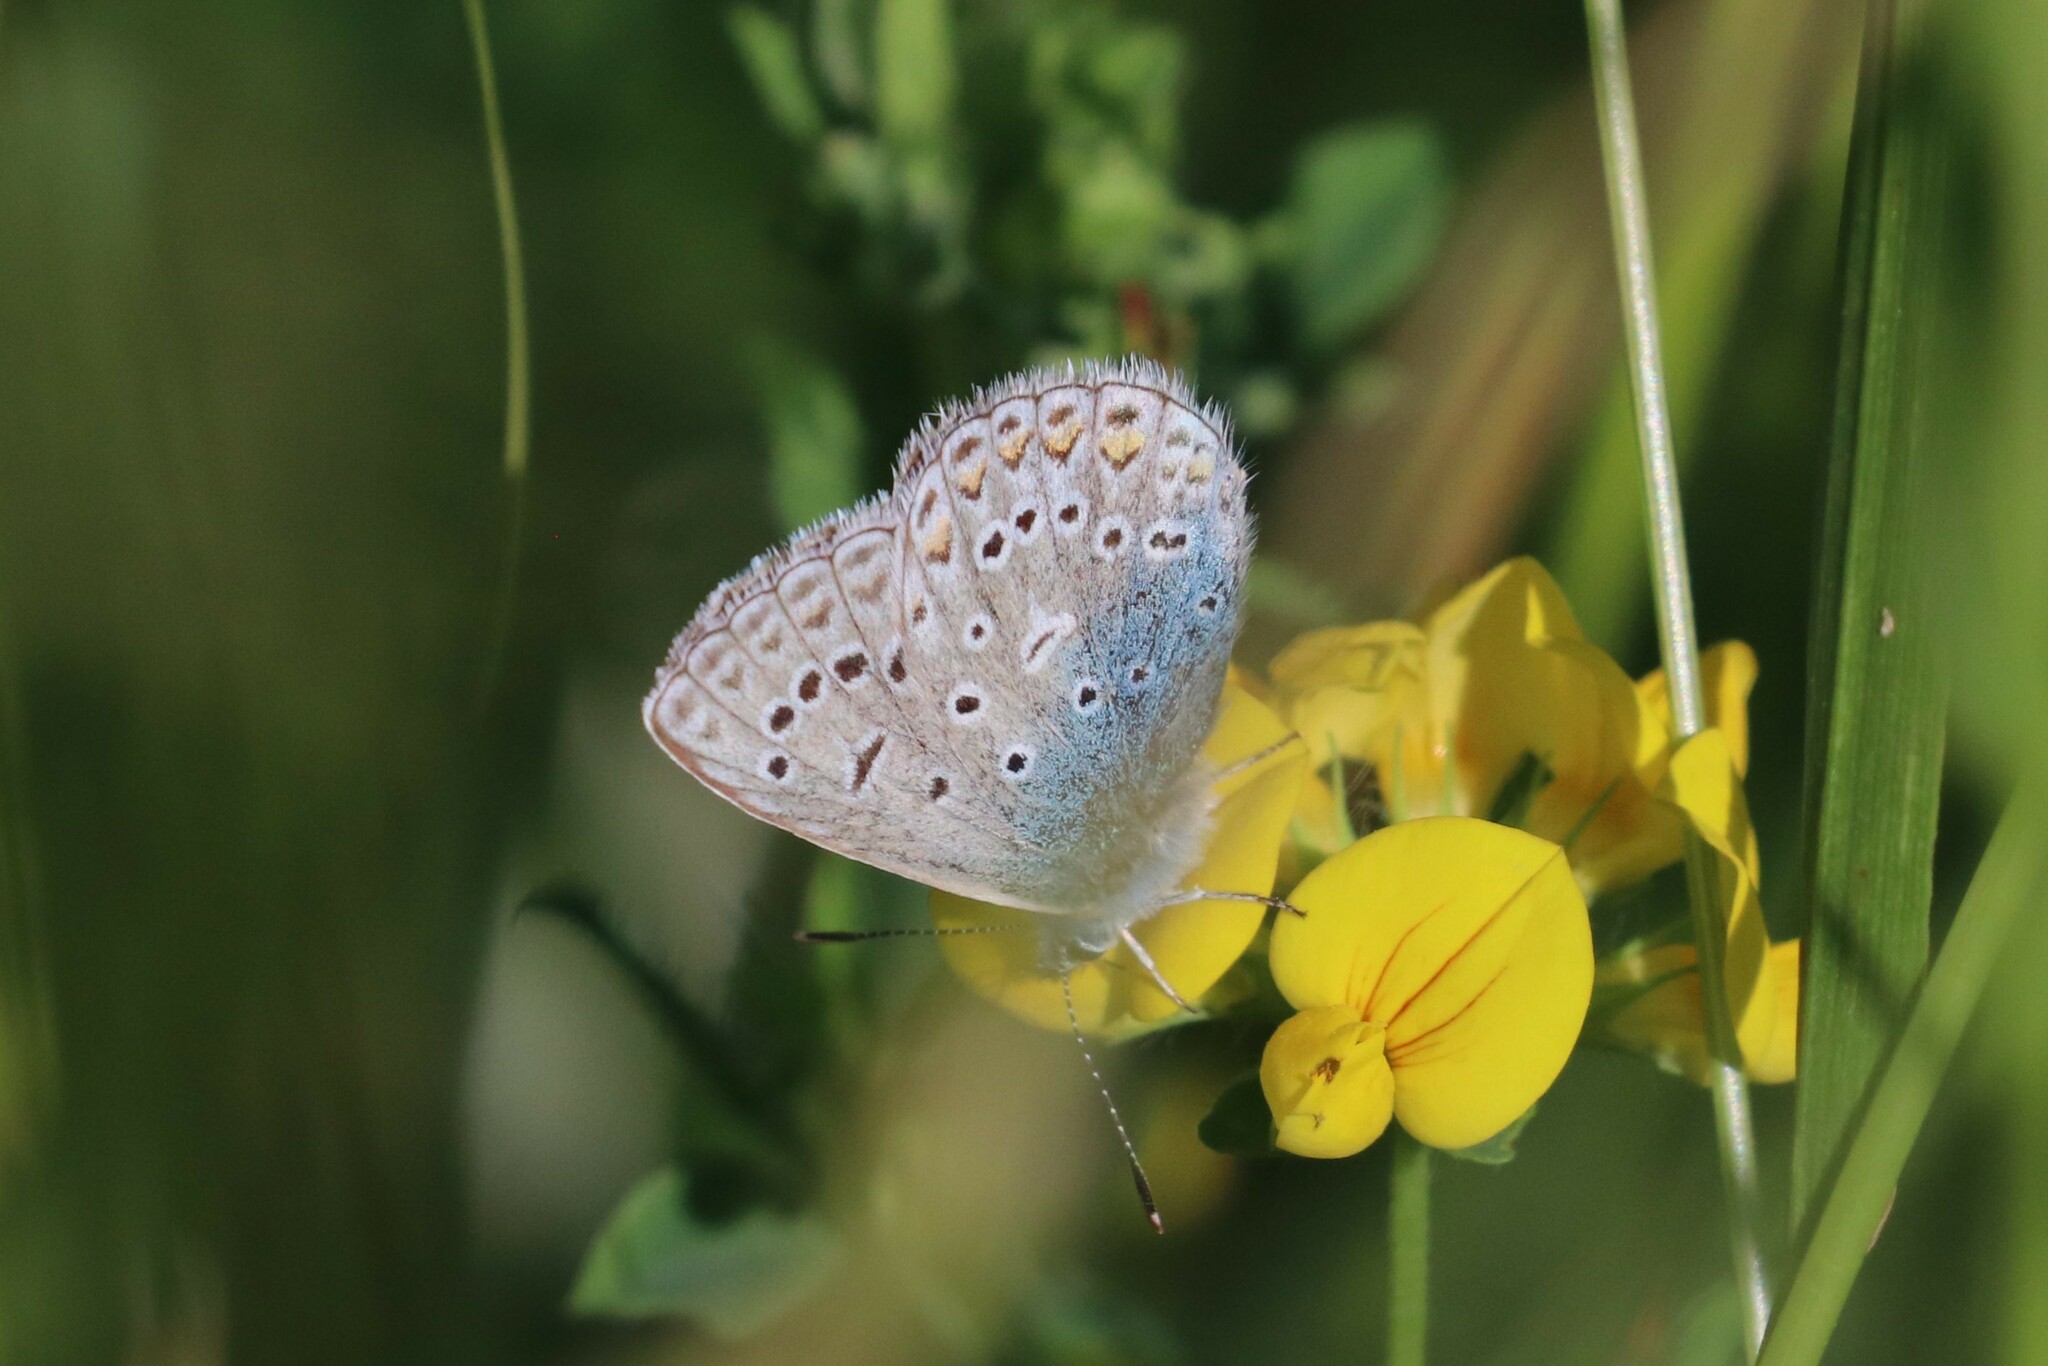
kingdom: Animalia
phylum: Arthropoda
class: Insecta
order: Lepidoptera
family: Lycaenidae
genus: Polyommatus
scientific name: Polyommatus icarus
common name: Common blue
